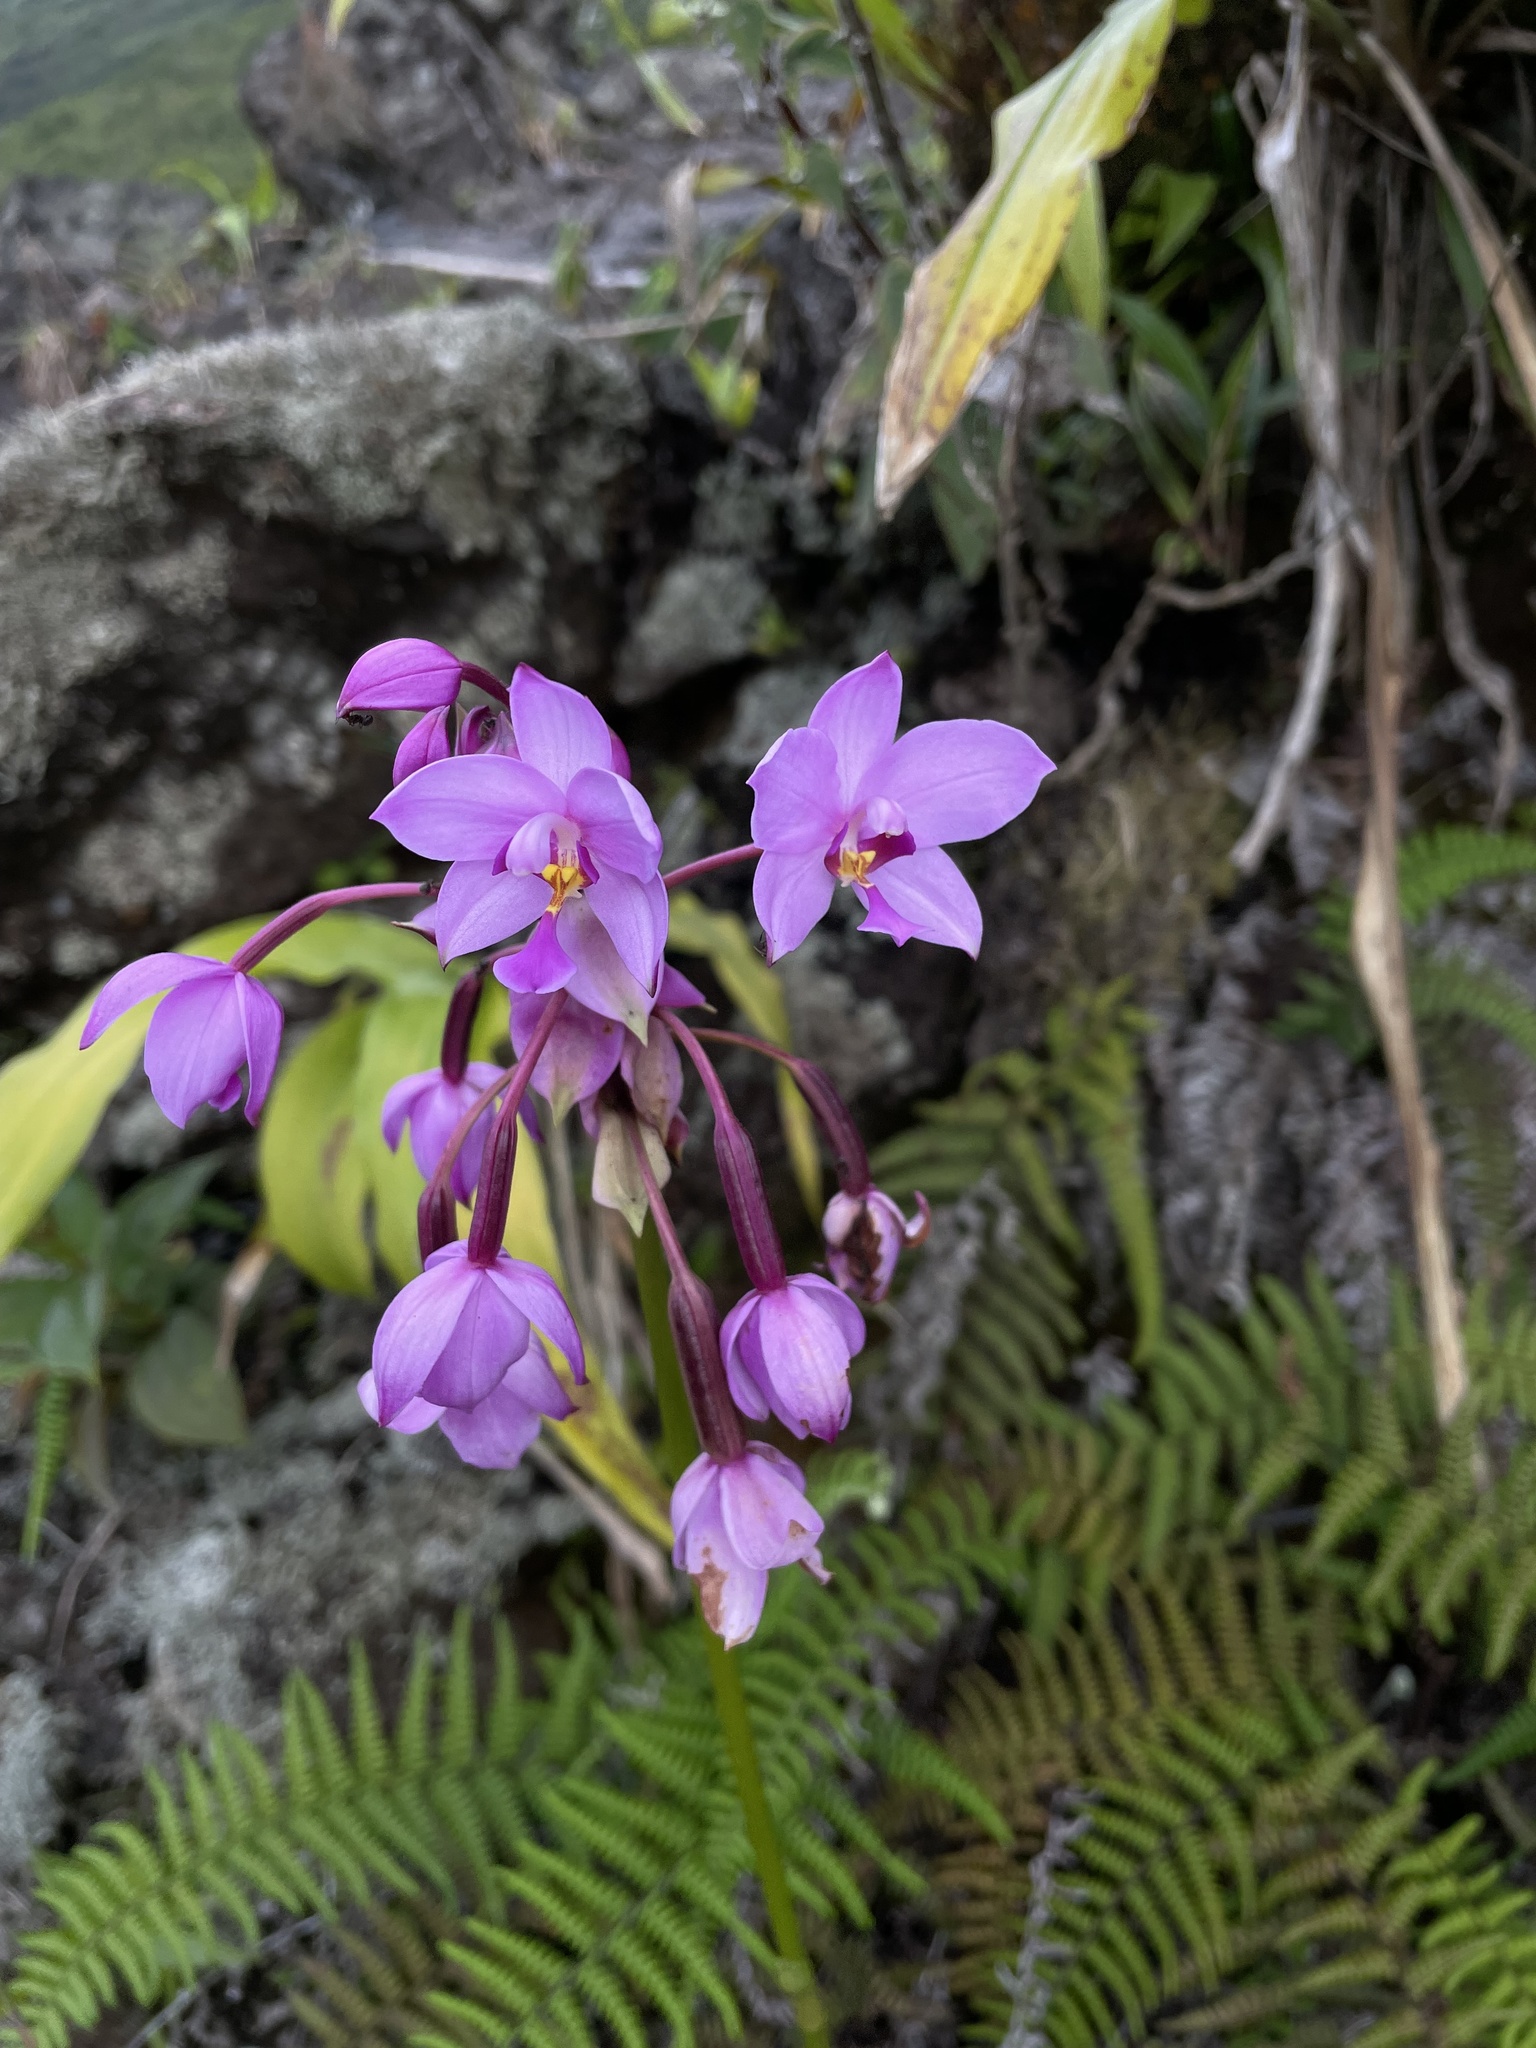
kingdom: Plantae
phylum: Tracheophyta
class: Liliopsida
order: Asparagales
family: Orchidaceae
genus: Spathoglottis
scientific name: Spathoglottis plicata
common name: Philippine ground orchid
